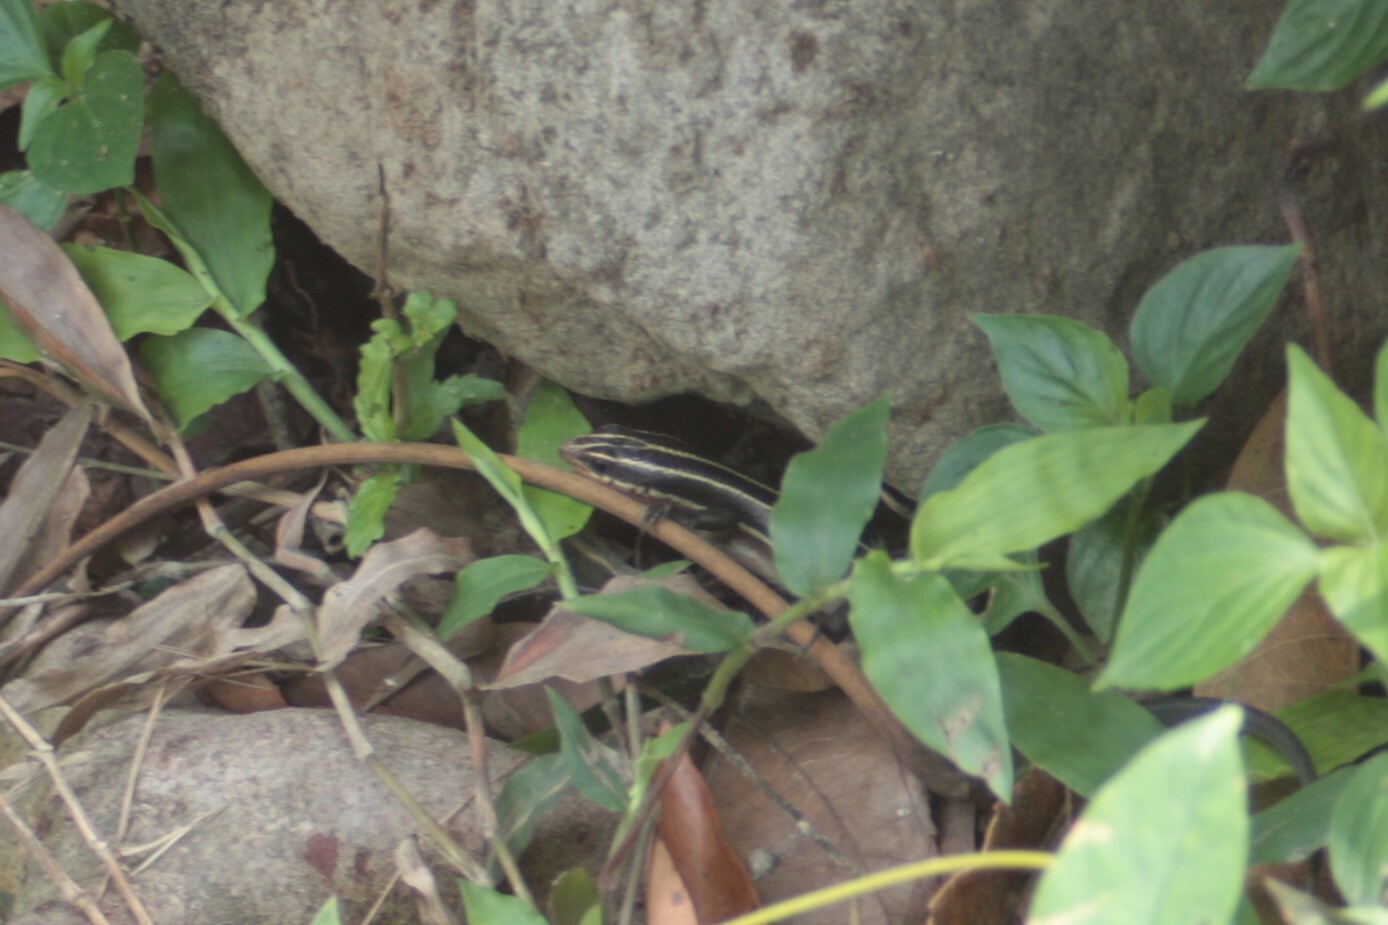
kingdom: Animalia
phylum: Chordata
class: Squamata
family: Scincidae
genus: Plestiodon
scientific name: Plestiodon elegans
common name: Shanghai elegant skink
